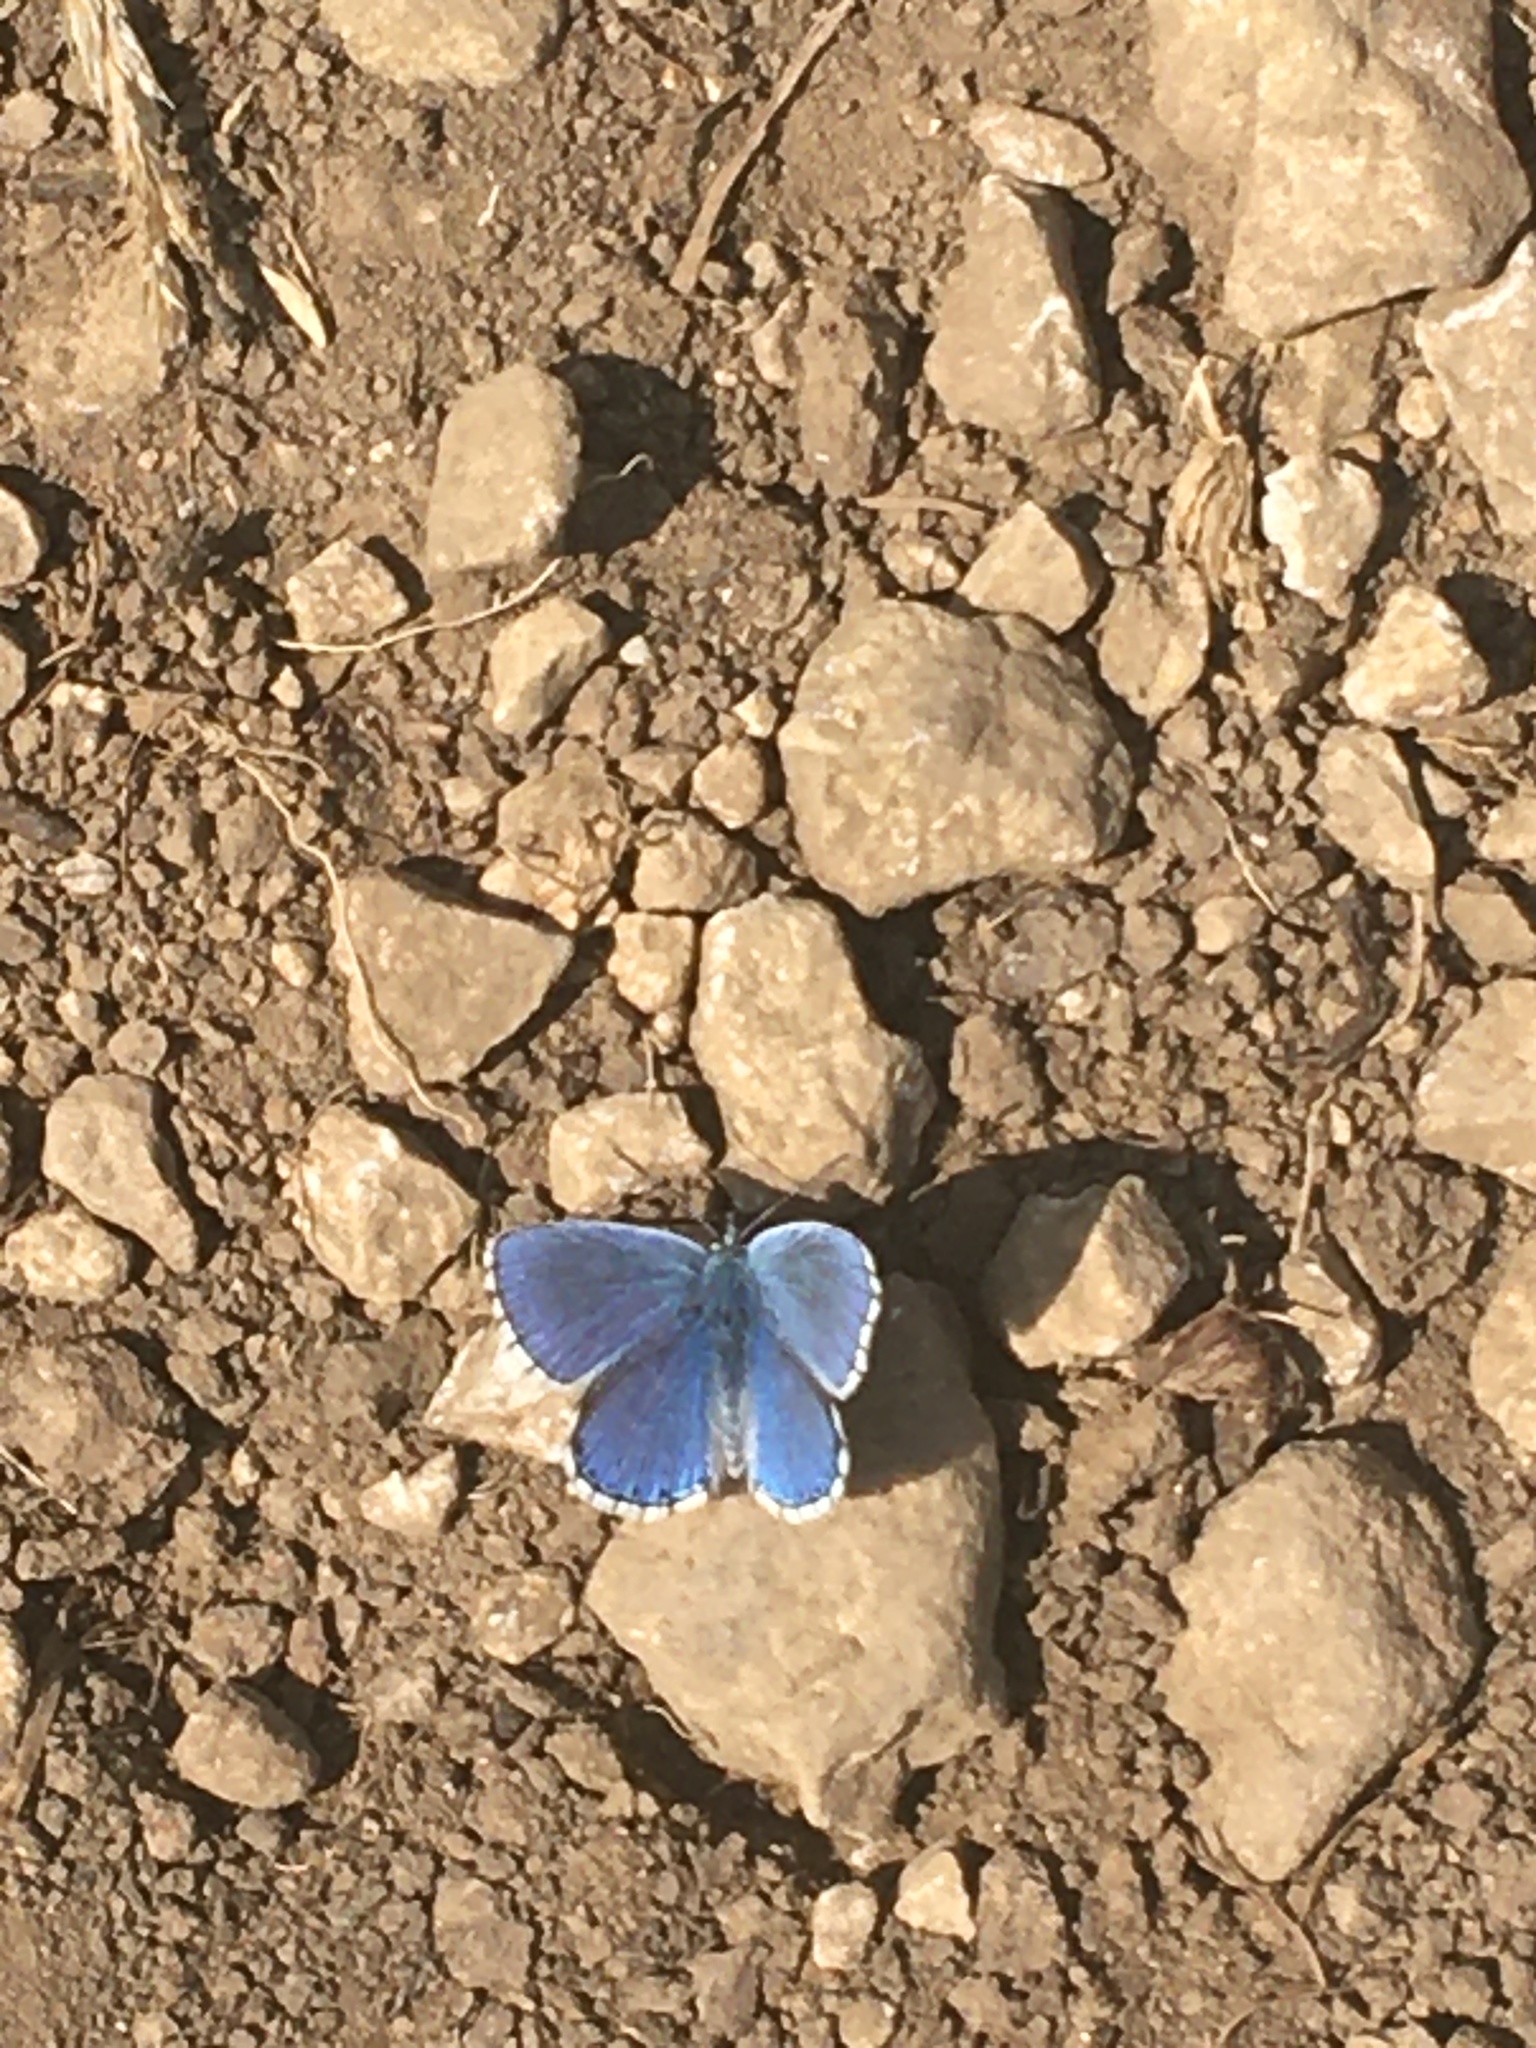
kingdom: Animalia
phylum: Arthropoda
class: Insecta
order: Lepidoptera
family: Lycaenidae
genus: Lysandra
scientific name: Lysandra bellargus
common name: Adonis blue
